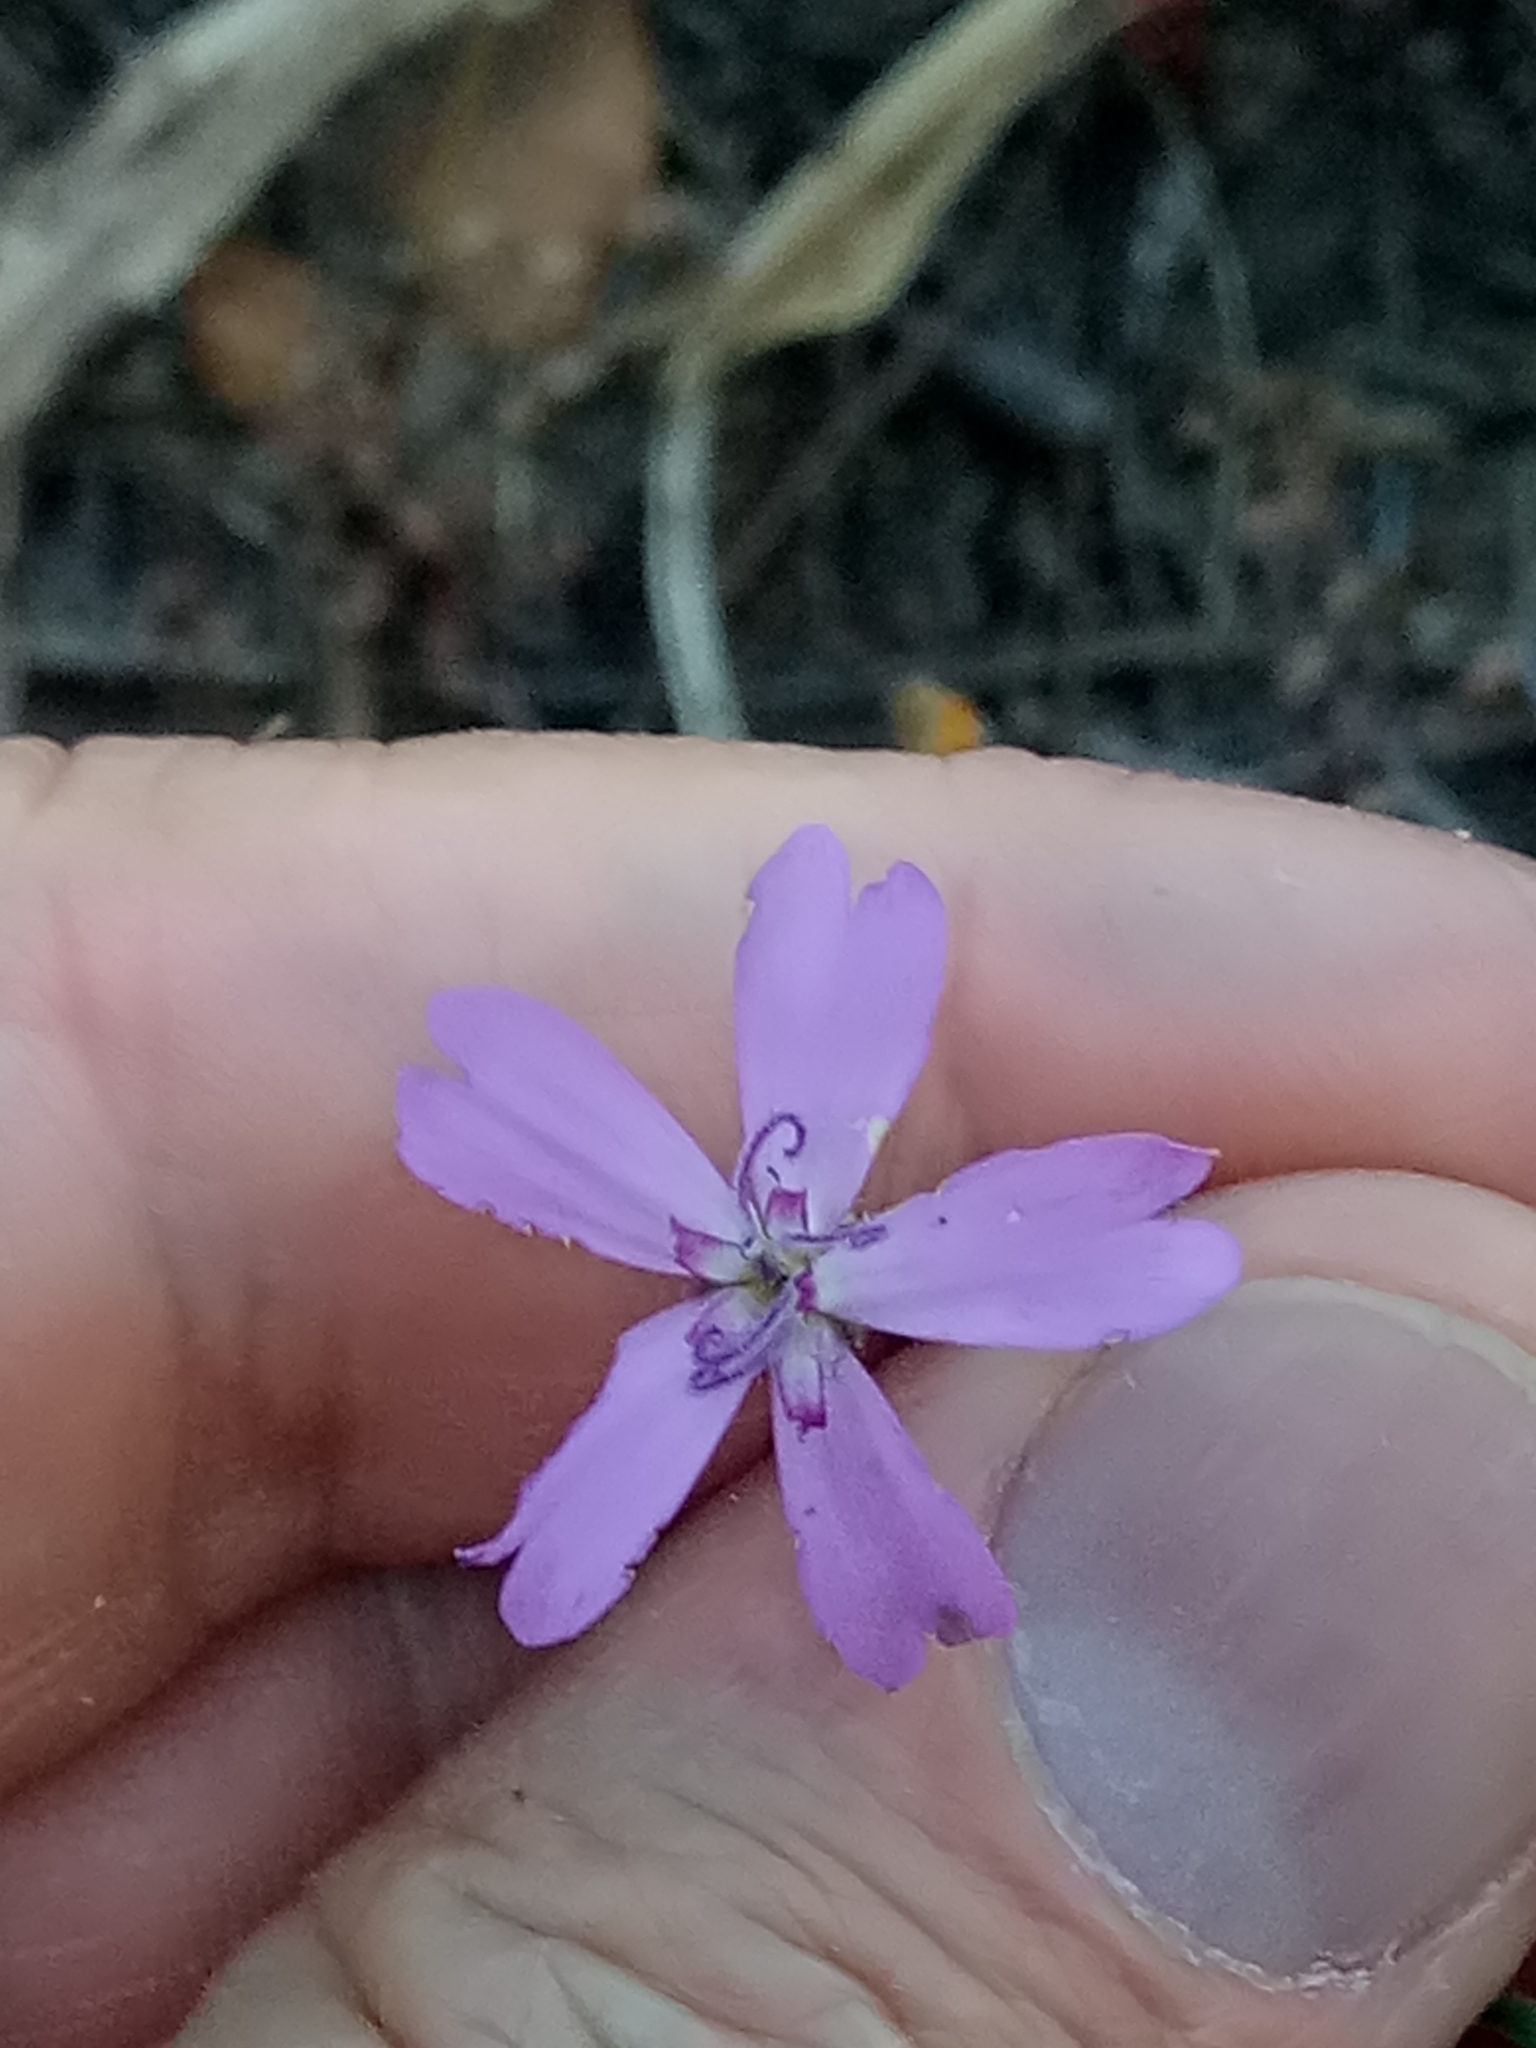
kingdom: Plantae
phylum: Tracheophyta
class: Magnoliopsida
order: Caryophyllales
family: Caryophyllaceae
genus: Eudianthe
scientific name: Eudianthe coeli-rosa
